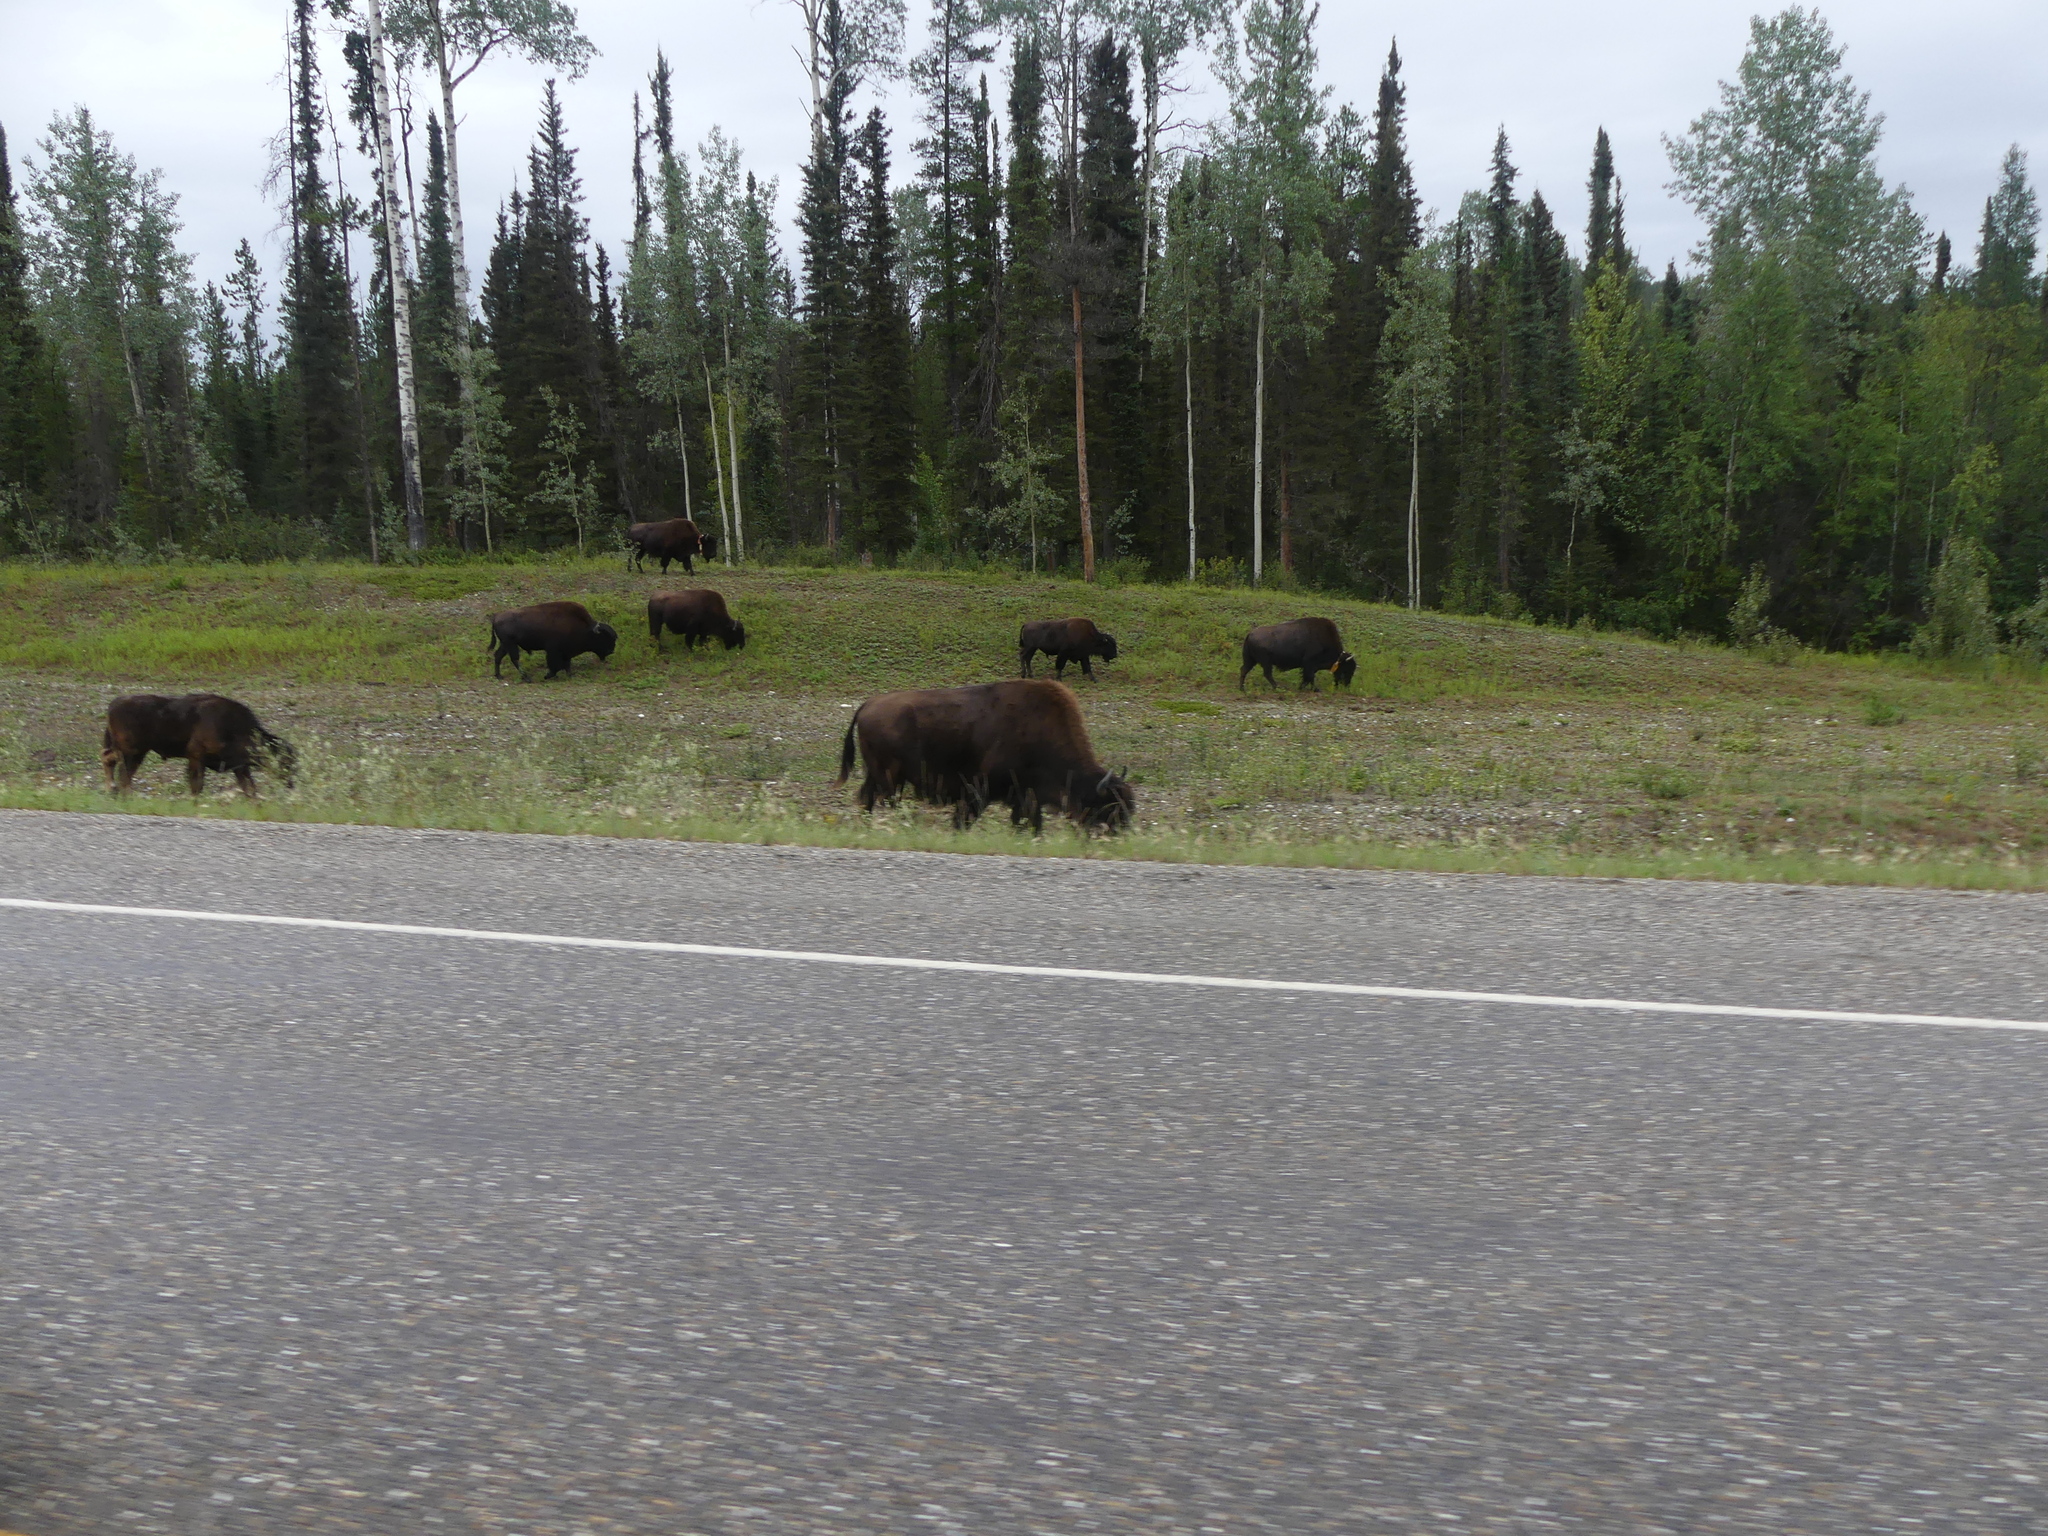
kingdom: Animalia
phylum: Chordata
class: Mammalia
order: Artiodactyla
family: Bovidae
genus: Bison
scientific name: Bison bison
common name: American bison
